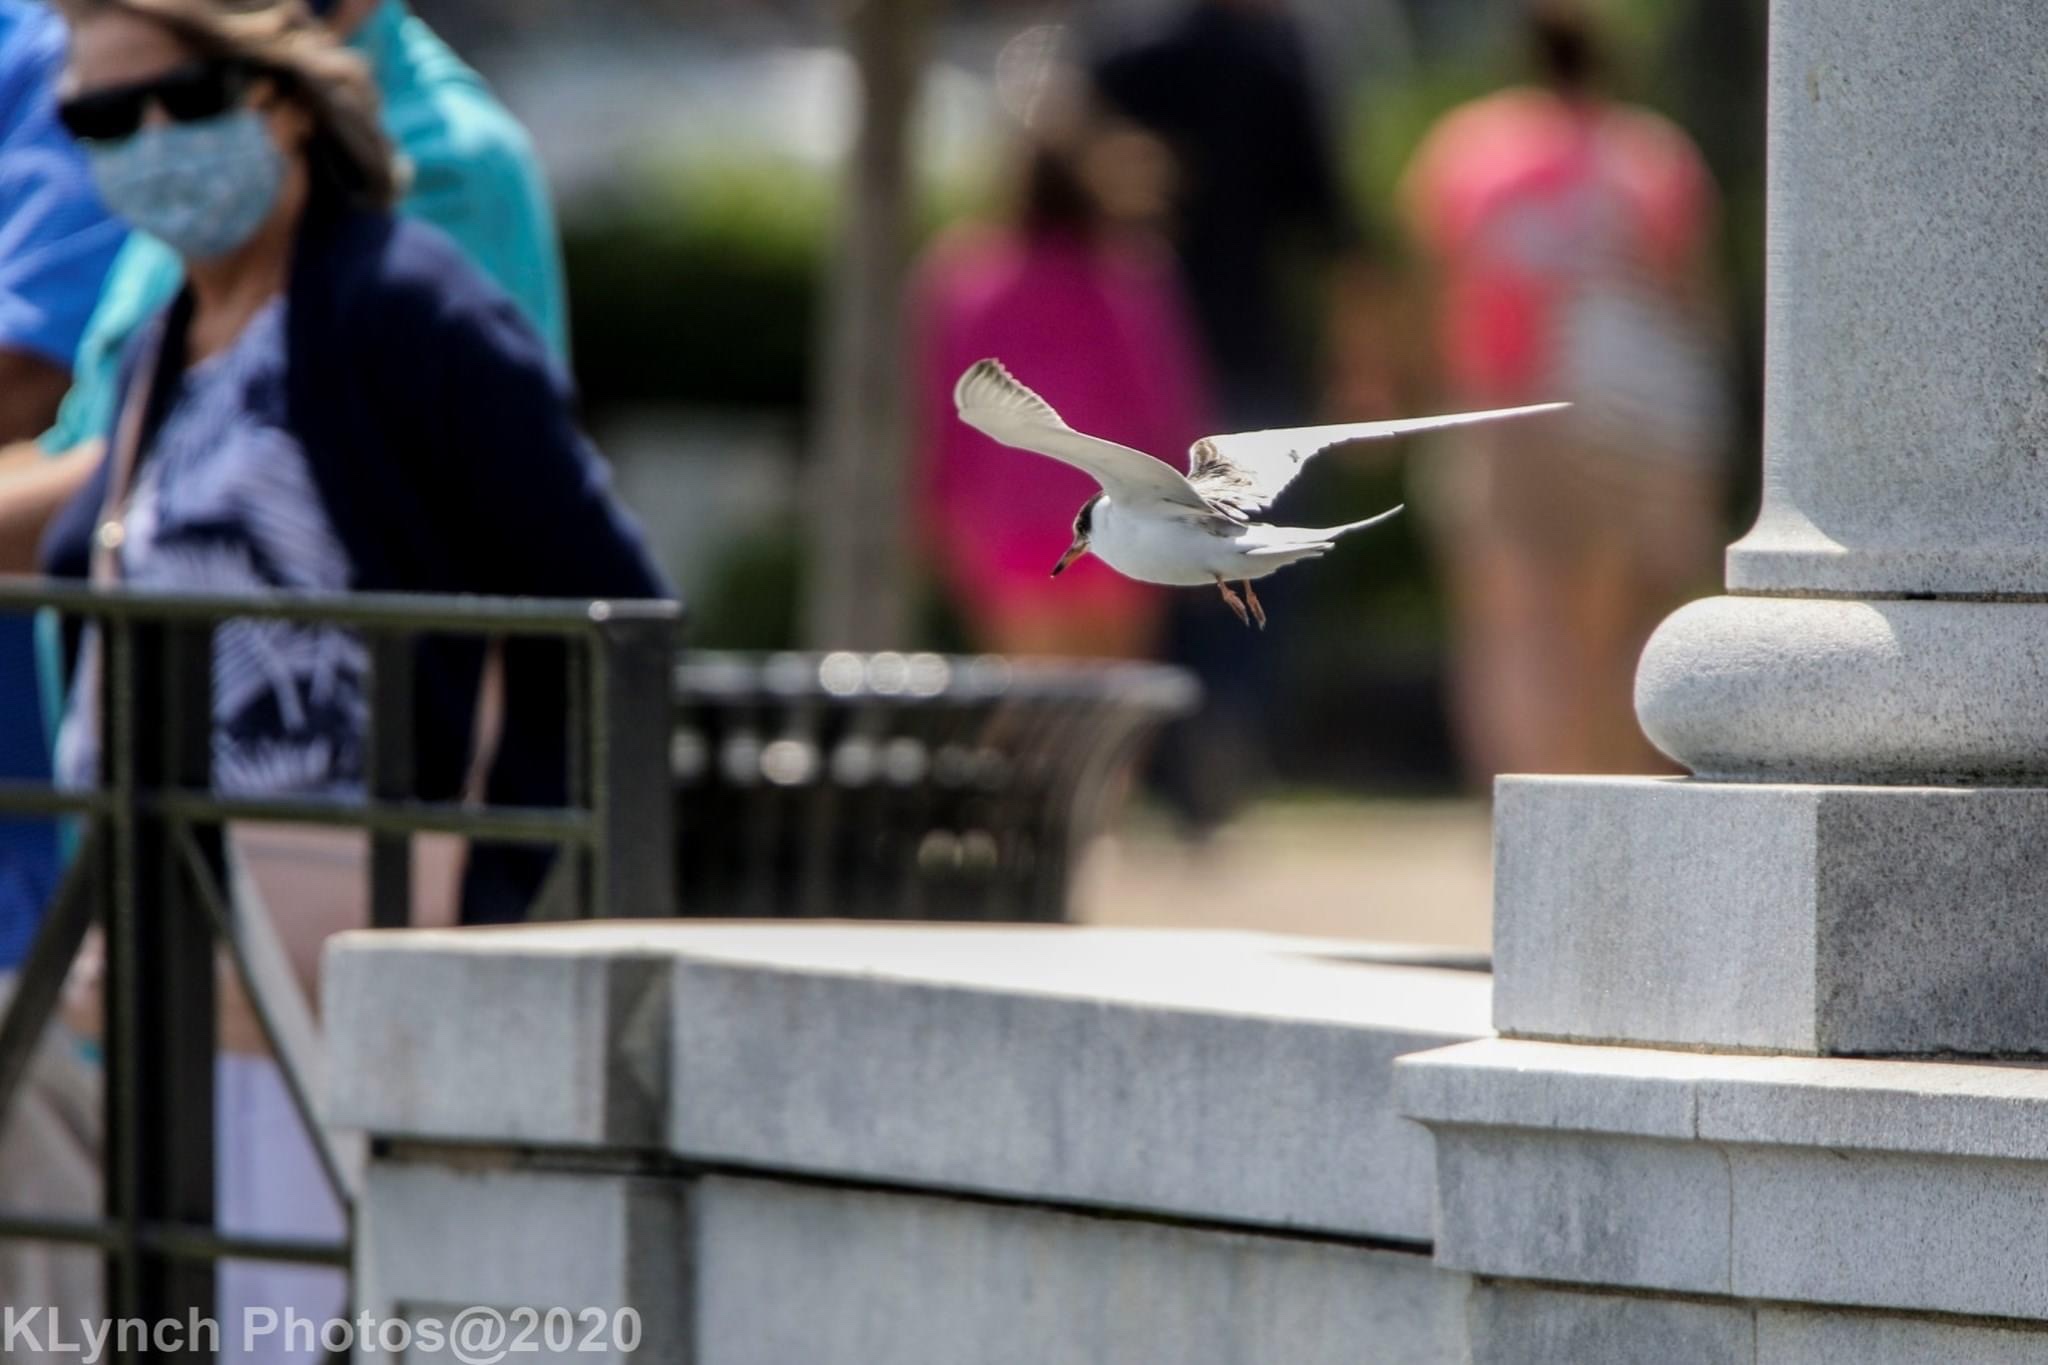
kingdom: Animalia
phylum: Chordata
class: Aves
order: Charadriiformes
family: Laridae
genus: Sterna
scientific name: Sterna hirundo
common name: Common tern
